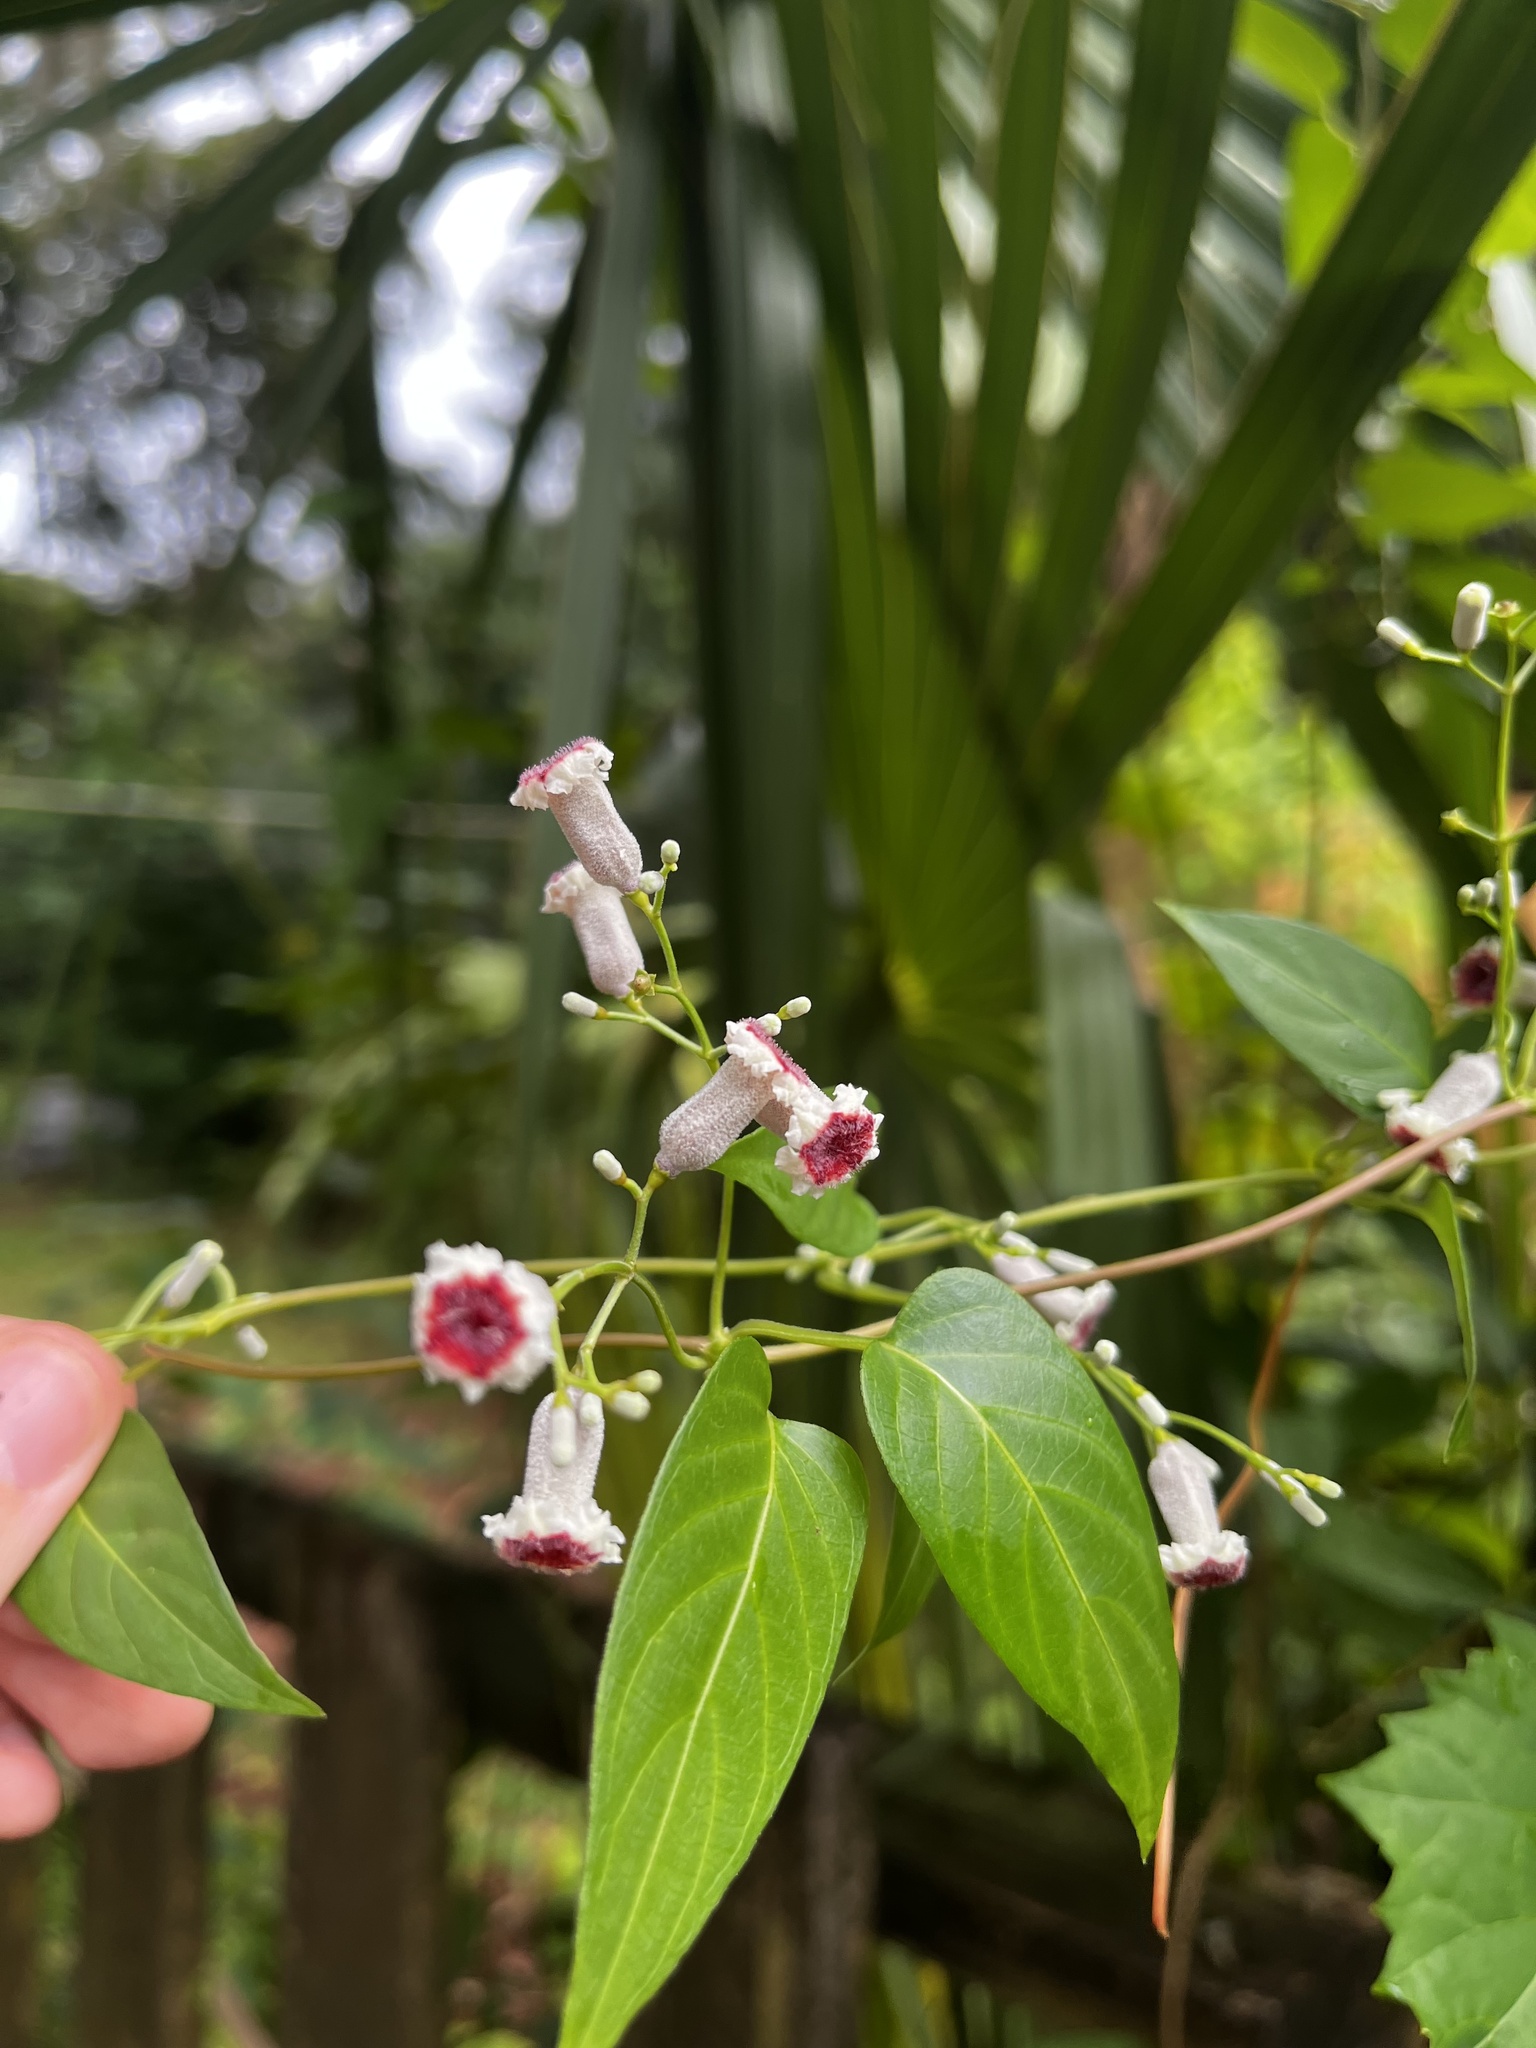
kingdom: Plantae
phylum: Tracheophyta
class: Magnoliopsida
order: Gentianales
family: Rubiaceae
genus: Paederia
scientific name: Paederia foetida
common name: Stinkvine
